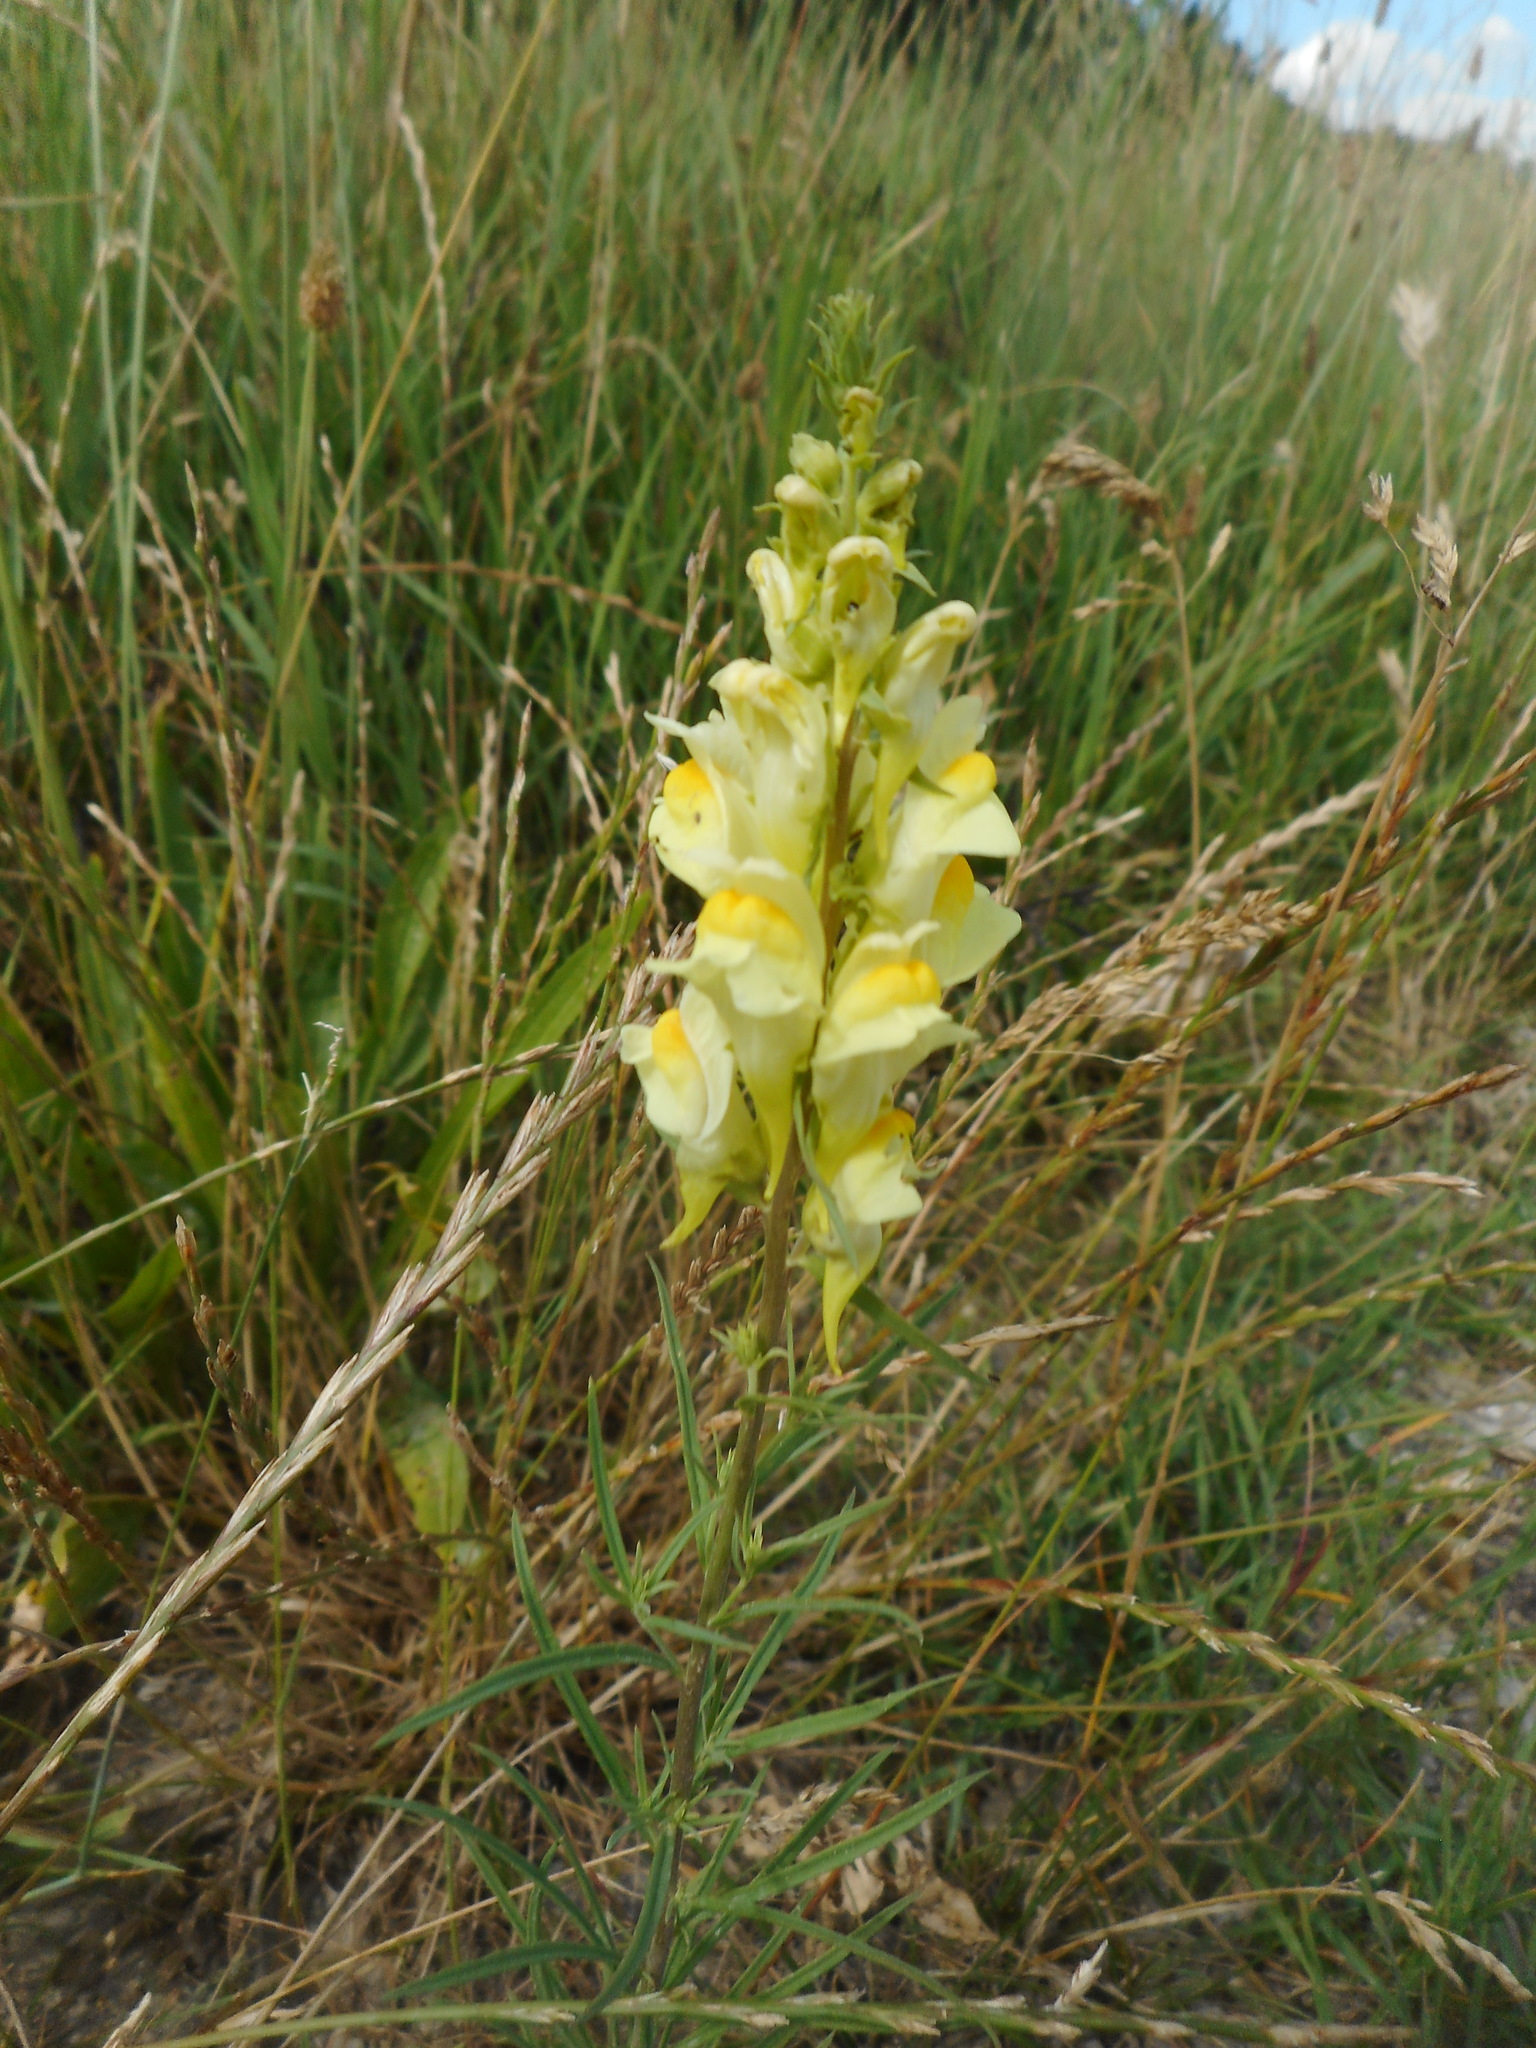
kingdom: Plantae
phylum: Tracheophyta
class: Magnoliopsida
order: Lamiales
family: Plantaginaceae
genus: Linaria
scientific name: Linaria vulgaris
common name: Butter and eggs
